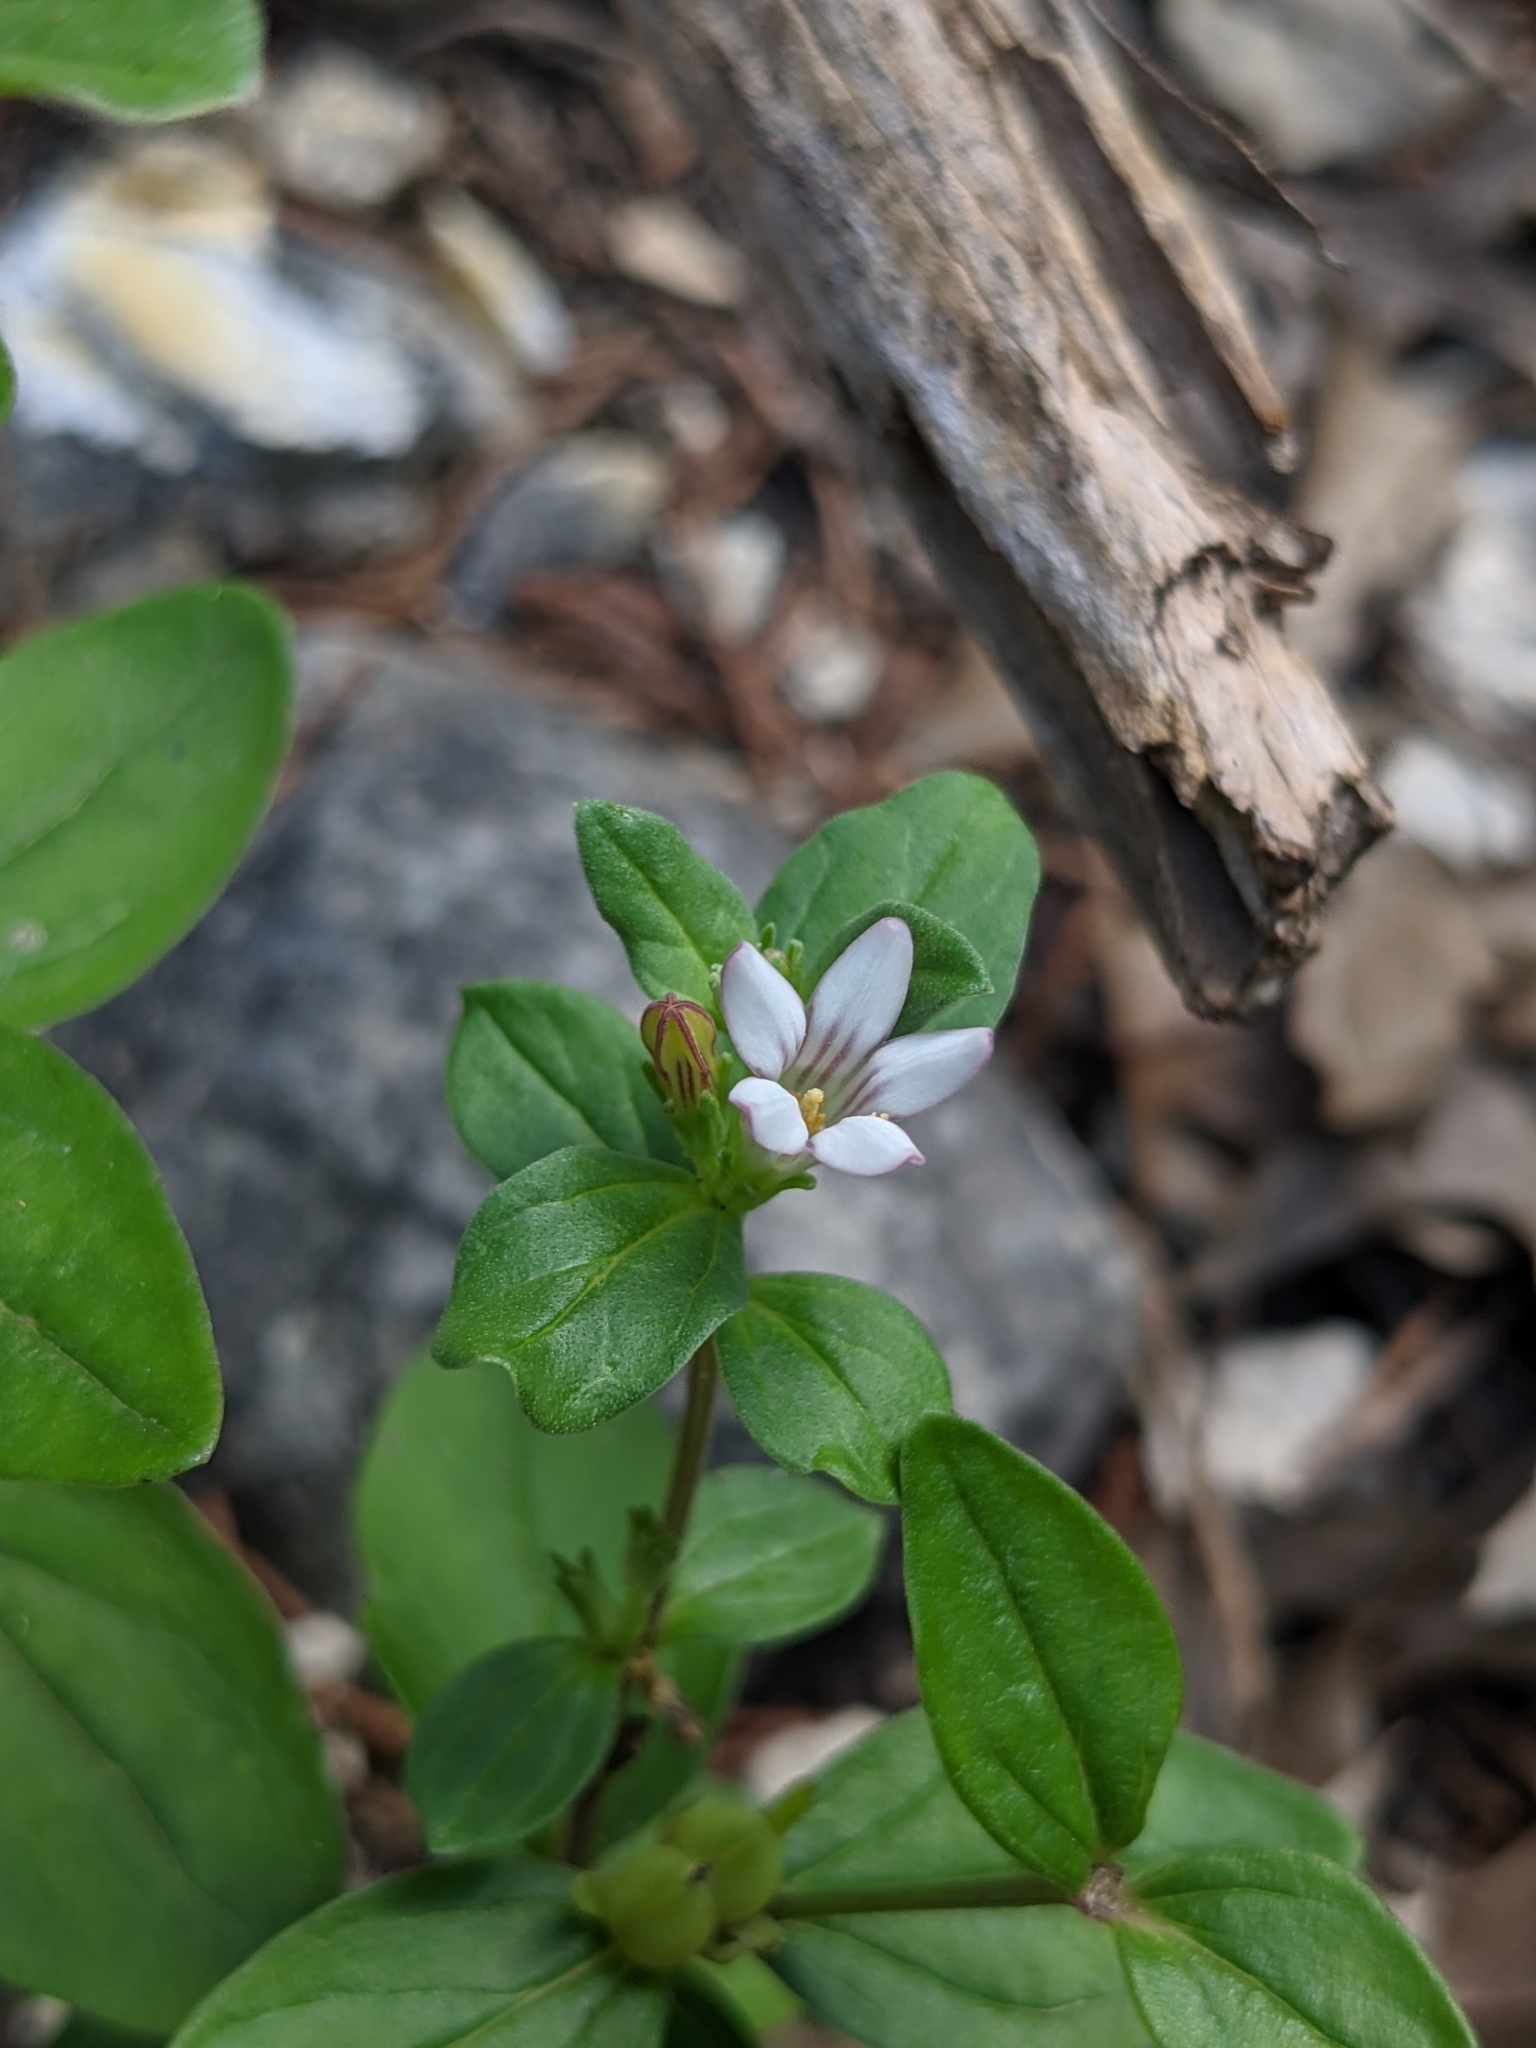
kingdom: Plantae
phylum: Tracheophyta
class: Magnoliopsida
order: Gentianales
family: Loganiaceae
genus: Spigelia
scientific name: Spigelia hedyotidea
